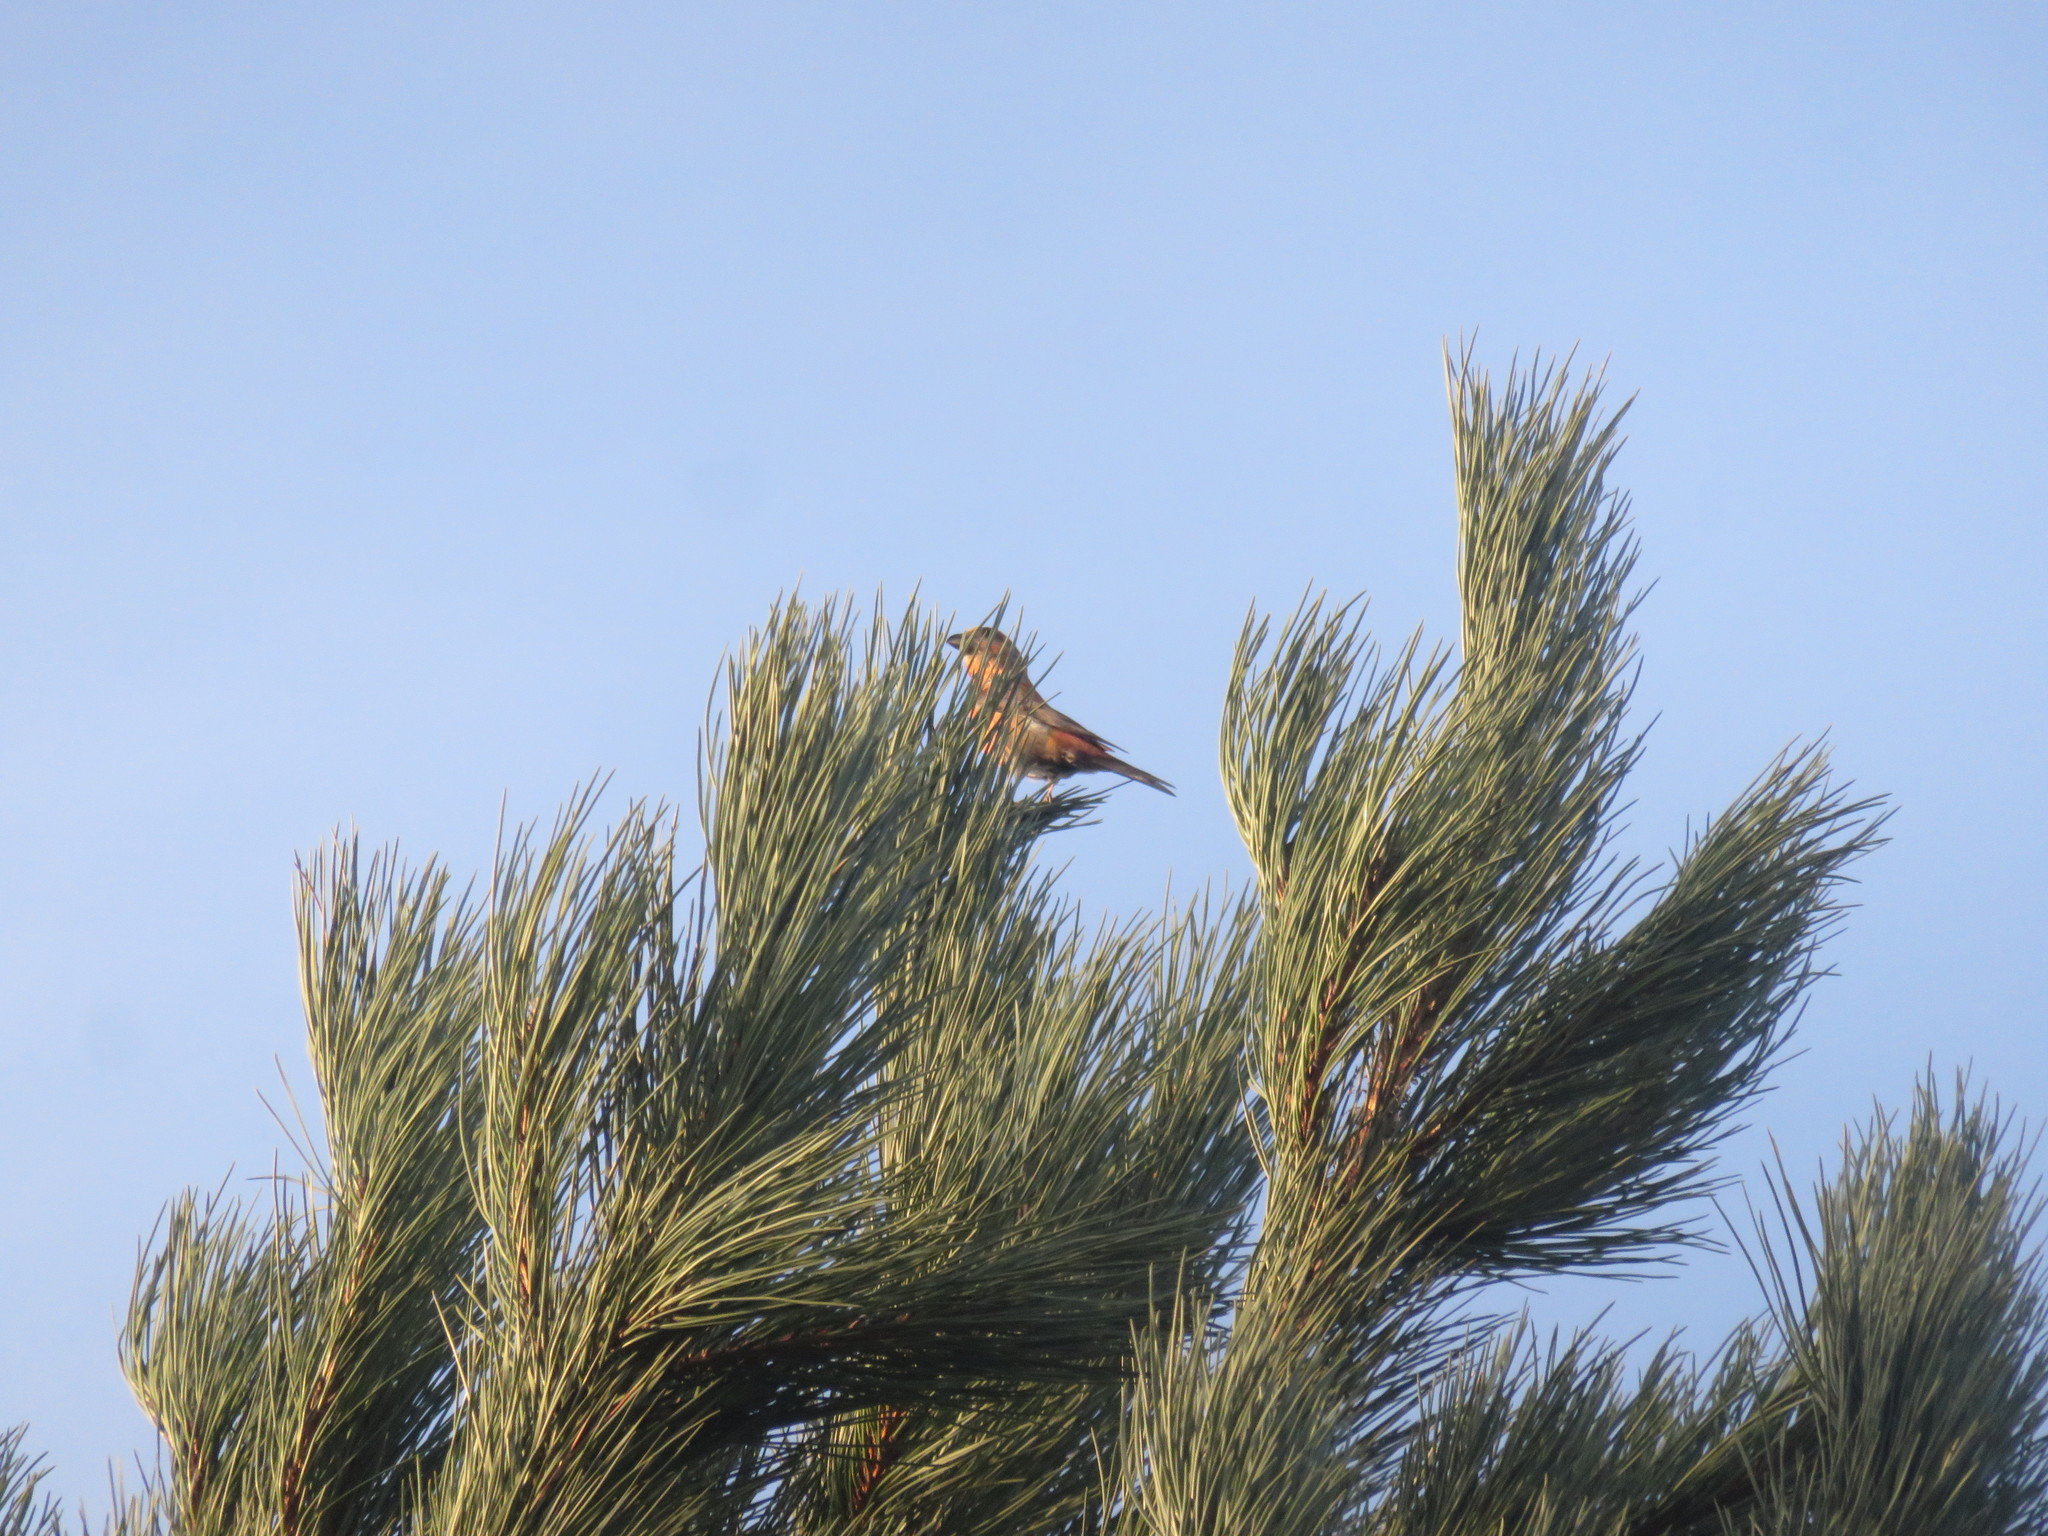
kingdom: Animalia
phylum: Chordata
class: Aves
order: Passeriformes
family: Fringillidae
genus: Loxia
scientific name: Loxia curvirostra
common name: Red crossbill
